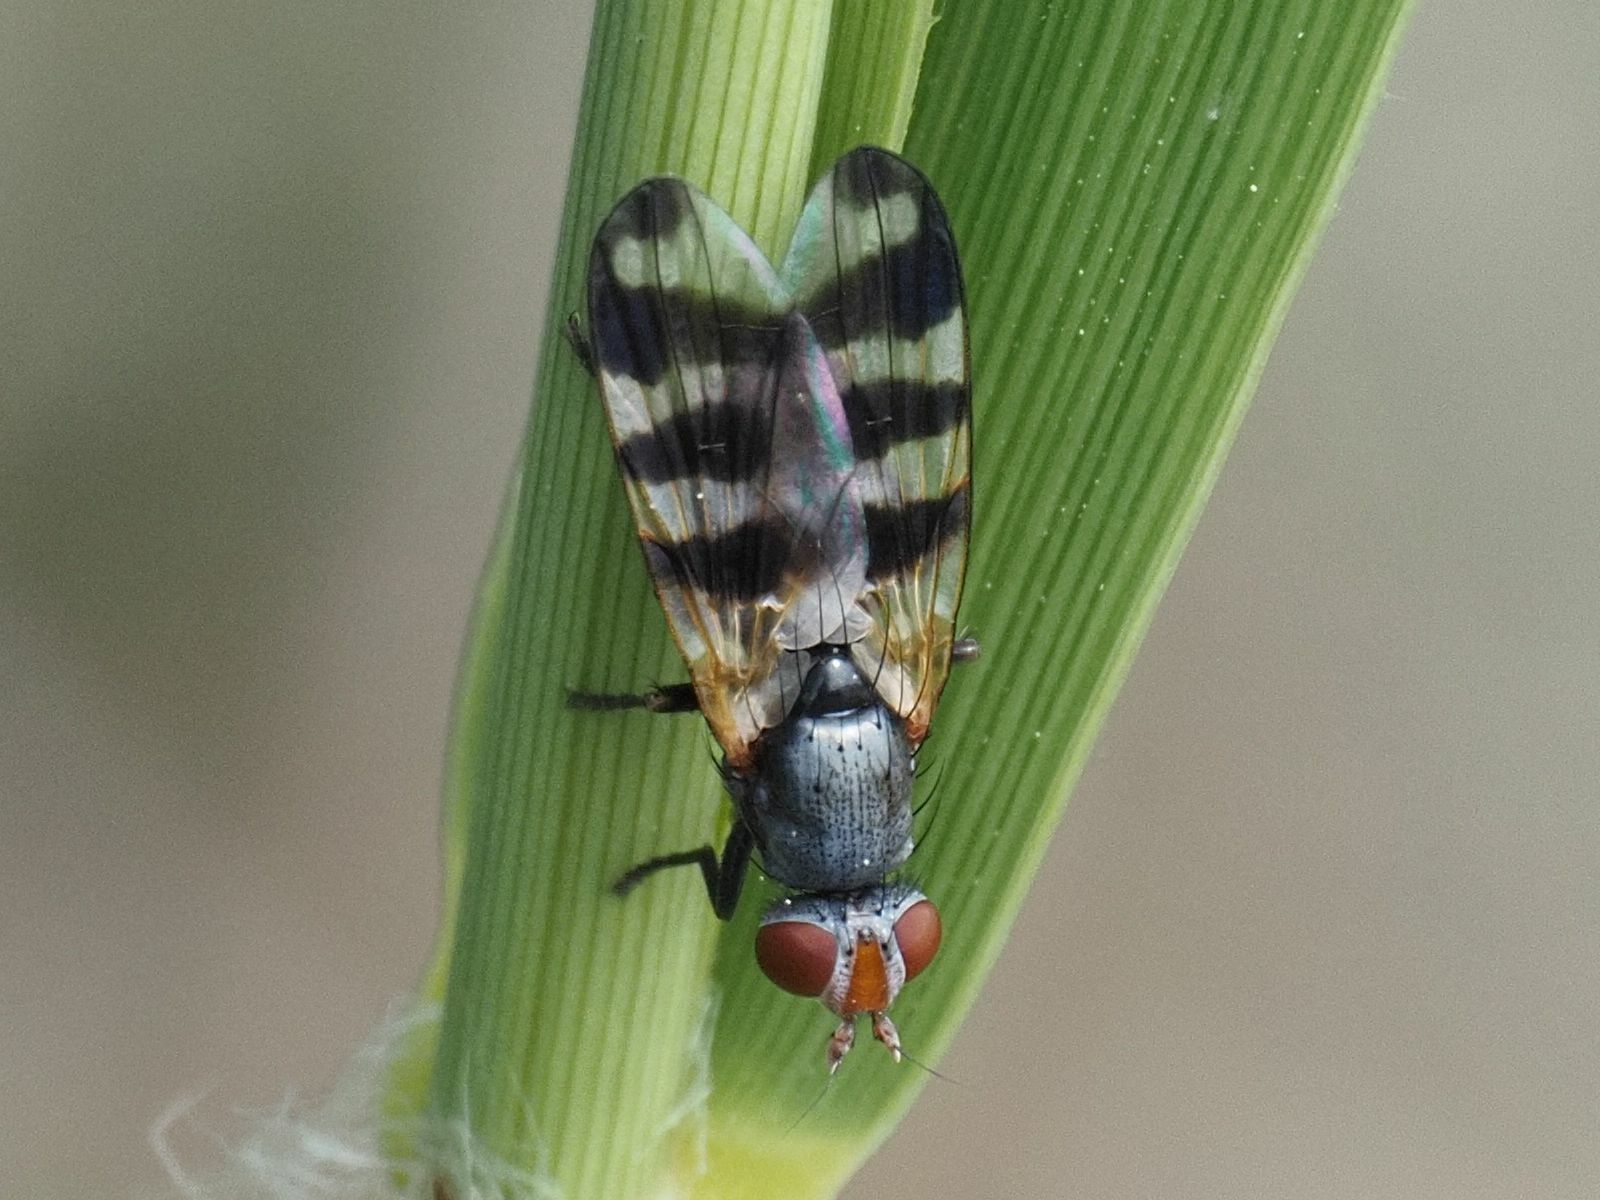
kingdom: Animalia
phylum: Arthropoda
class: Insecta
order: Diptera
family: Ulidiidae
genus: Ceroxys
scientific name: Ceroxys urticae
